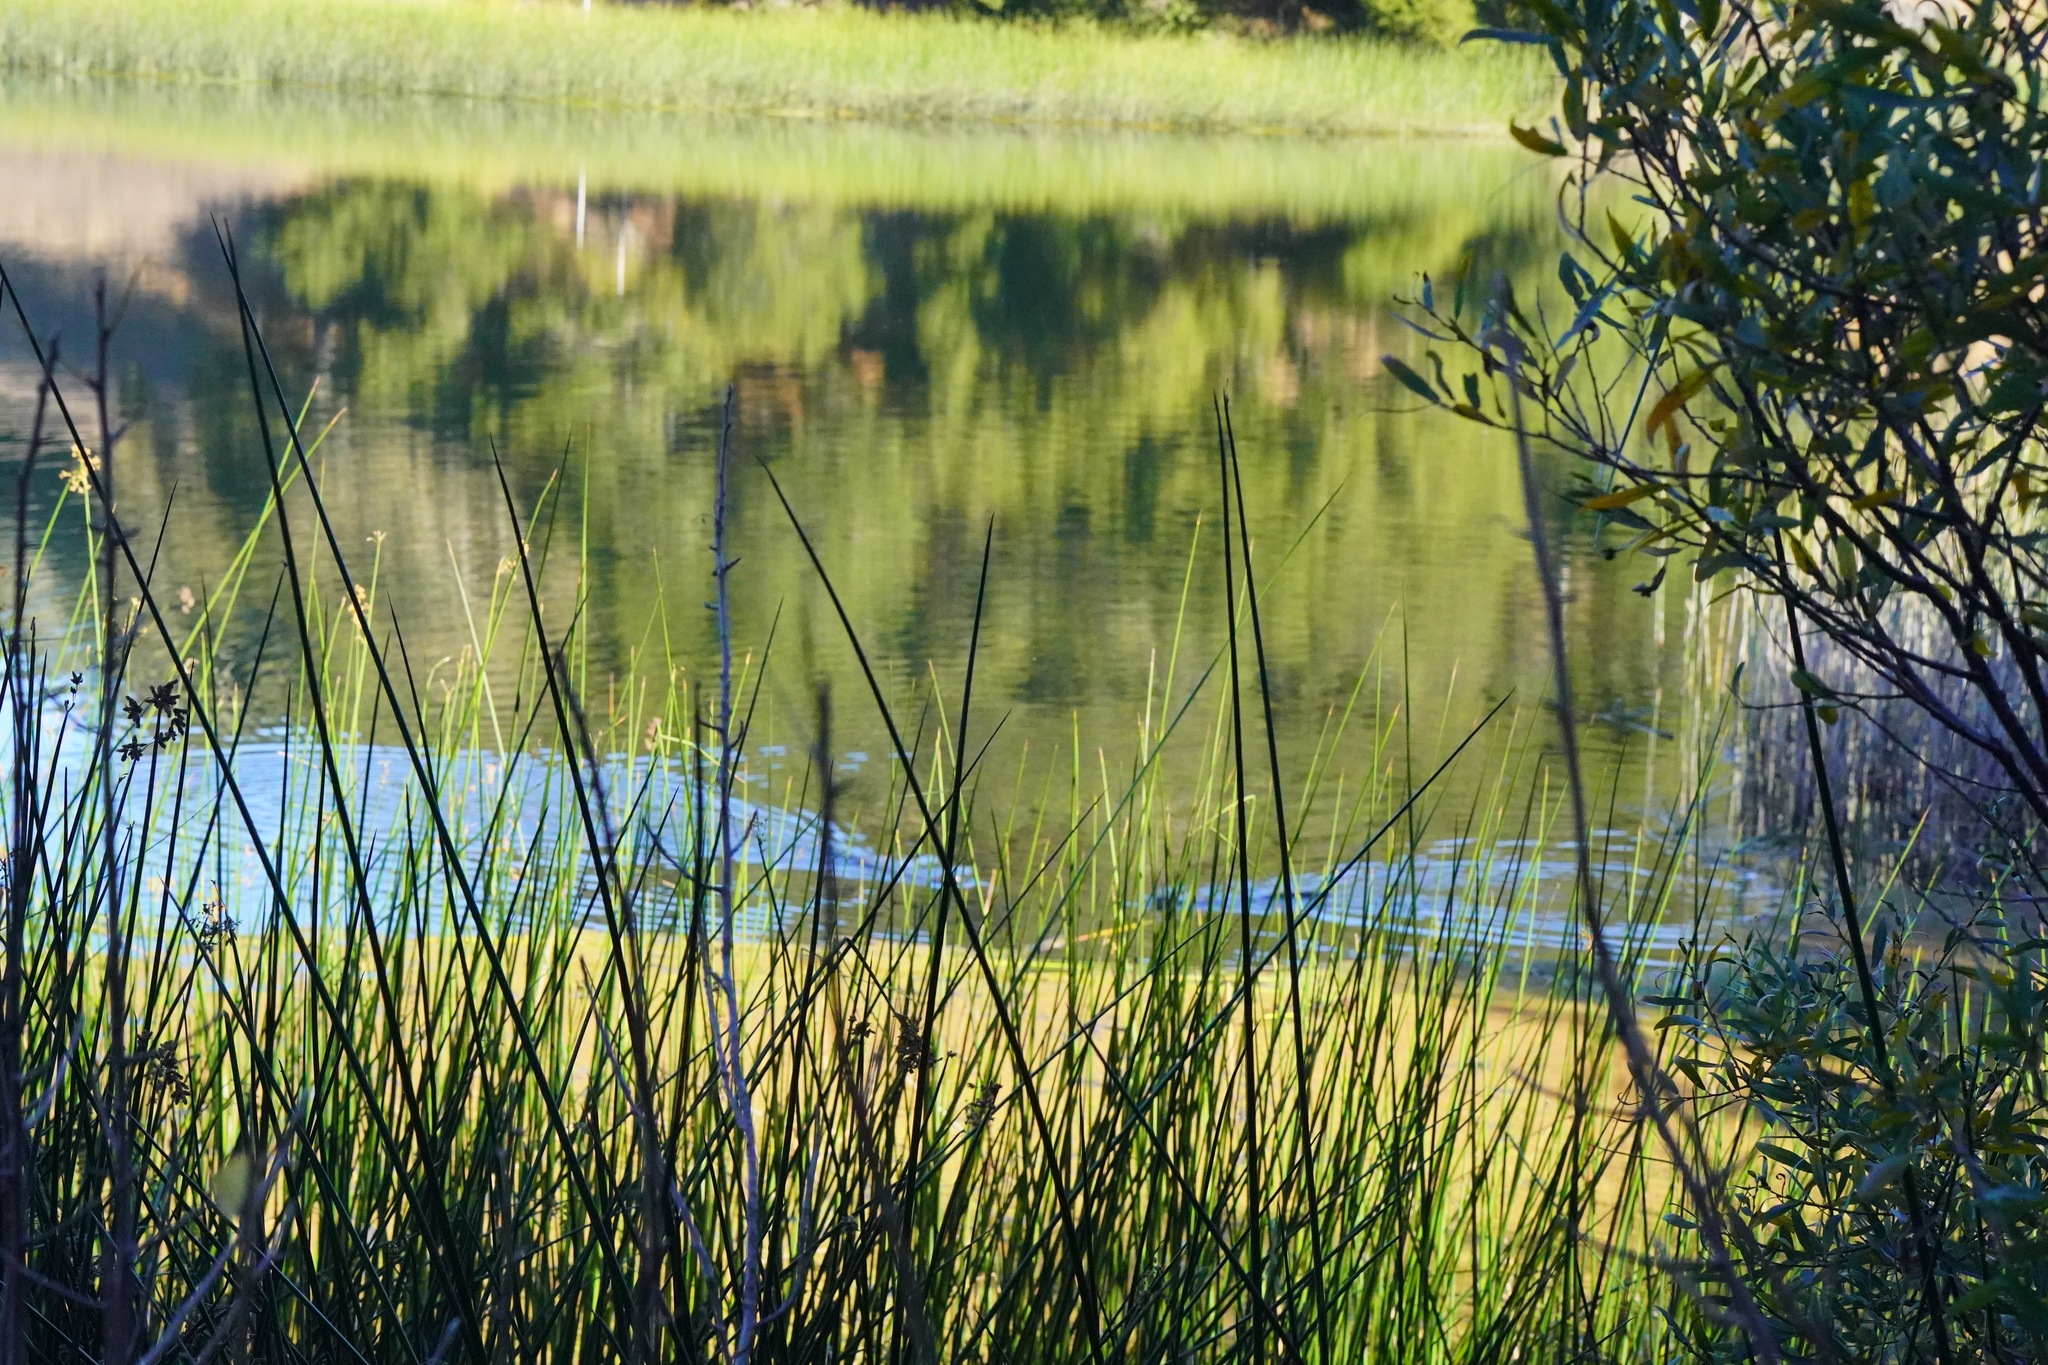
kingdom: Animalia
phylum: Chordata
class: Mammalia
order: Carnivora
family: Mustelidae
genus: Lontra
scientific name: Lontra canadensis
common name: North american river otter
